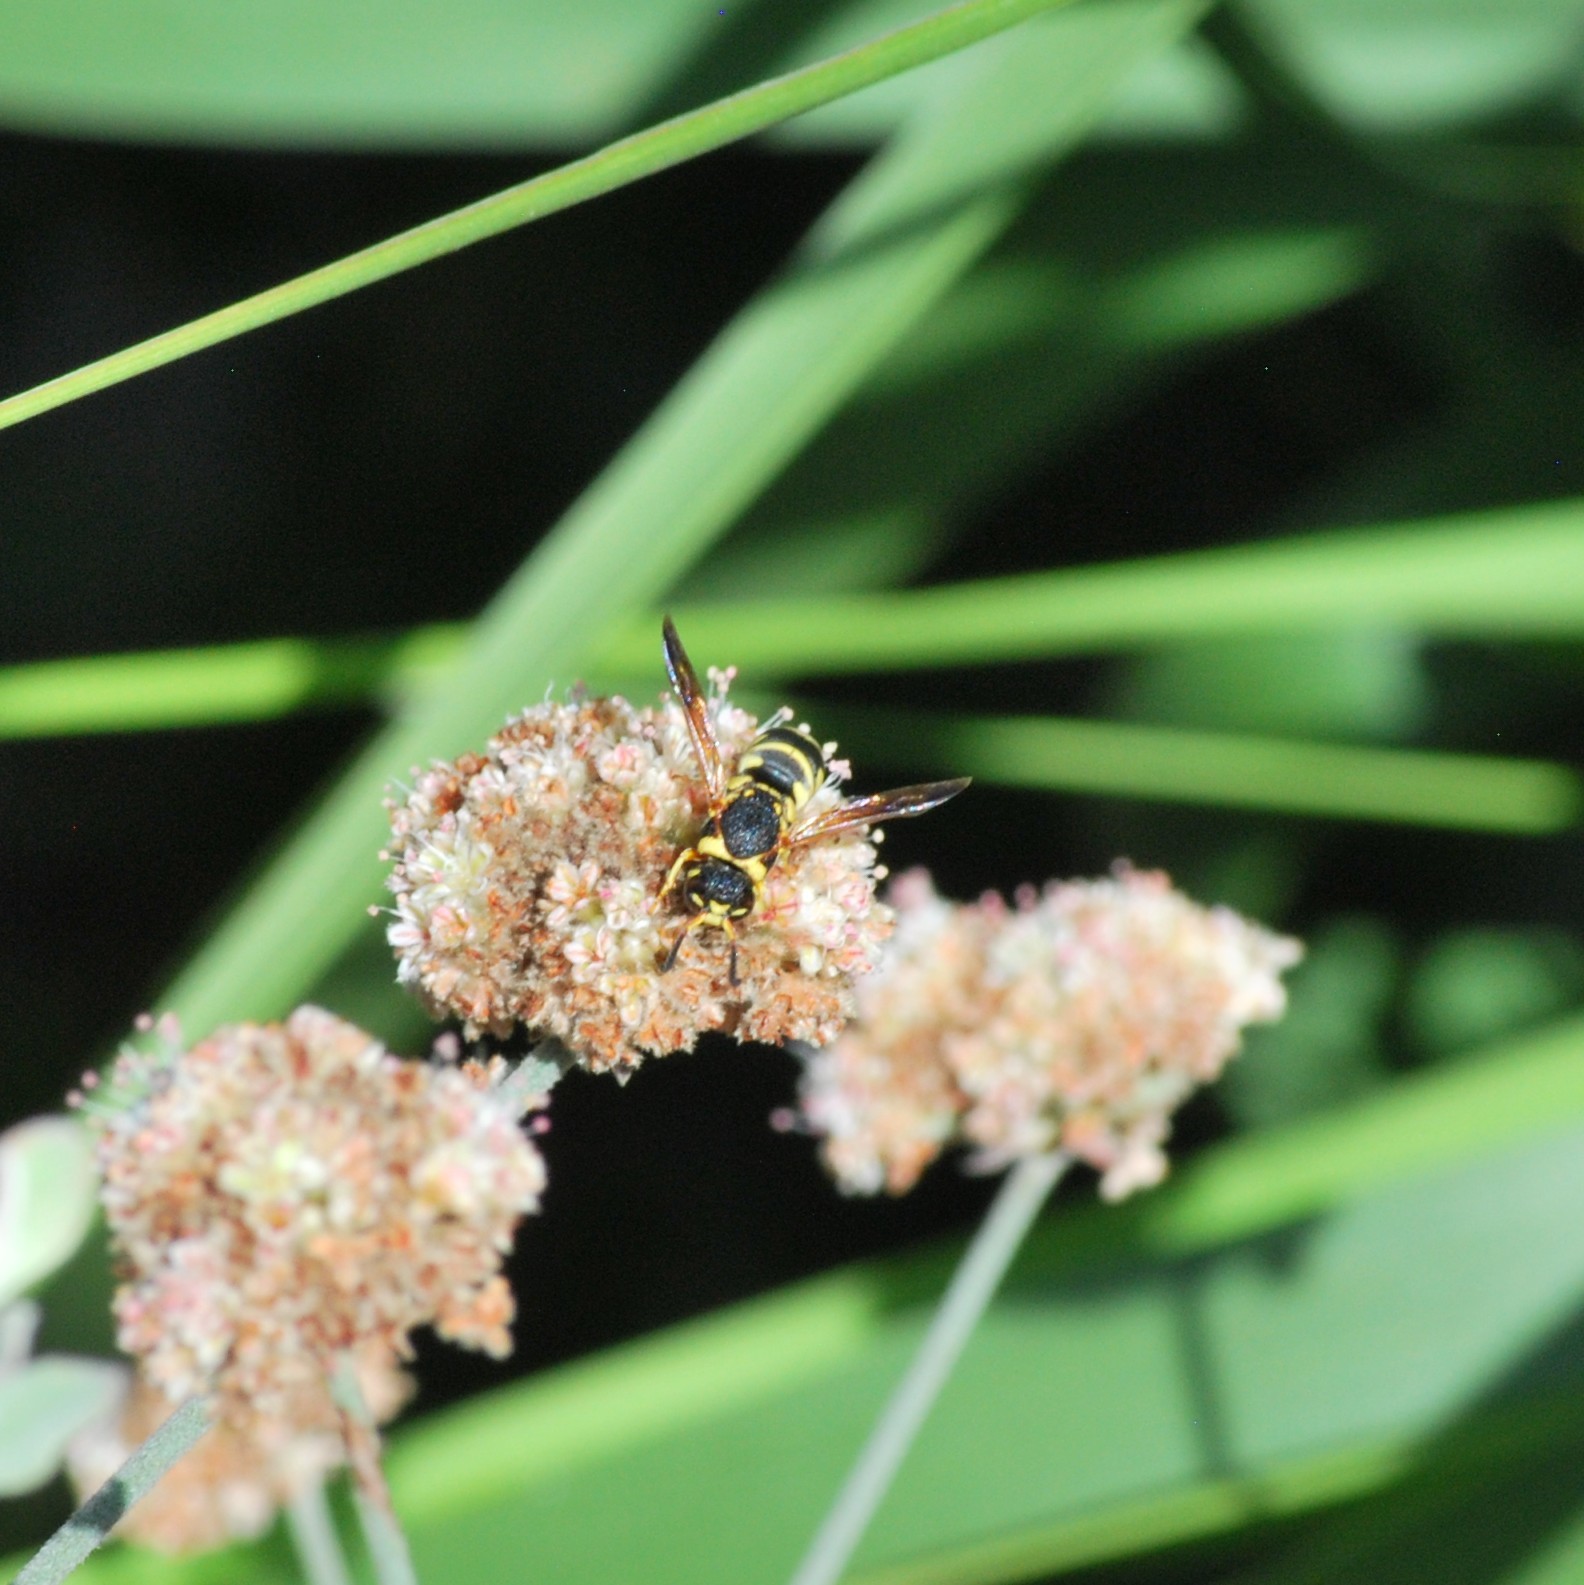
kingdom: Animalia
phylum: Arthropoda
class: Insecta
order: Hymenoptera
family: Eumenidae
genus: Euodynerus
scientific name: Euodynerus hidalgo
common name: Wasp
